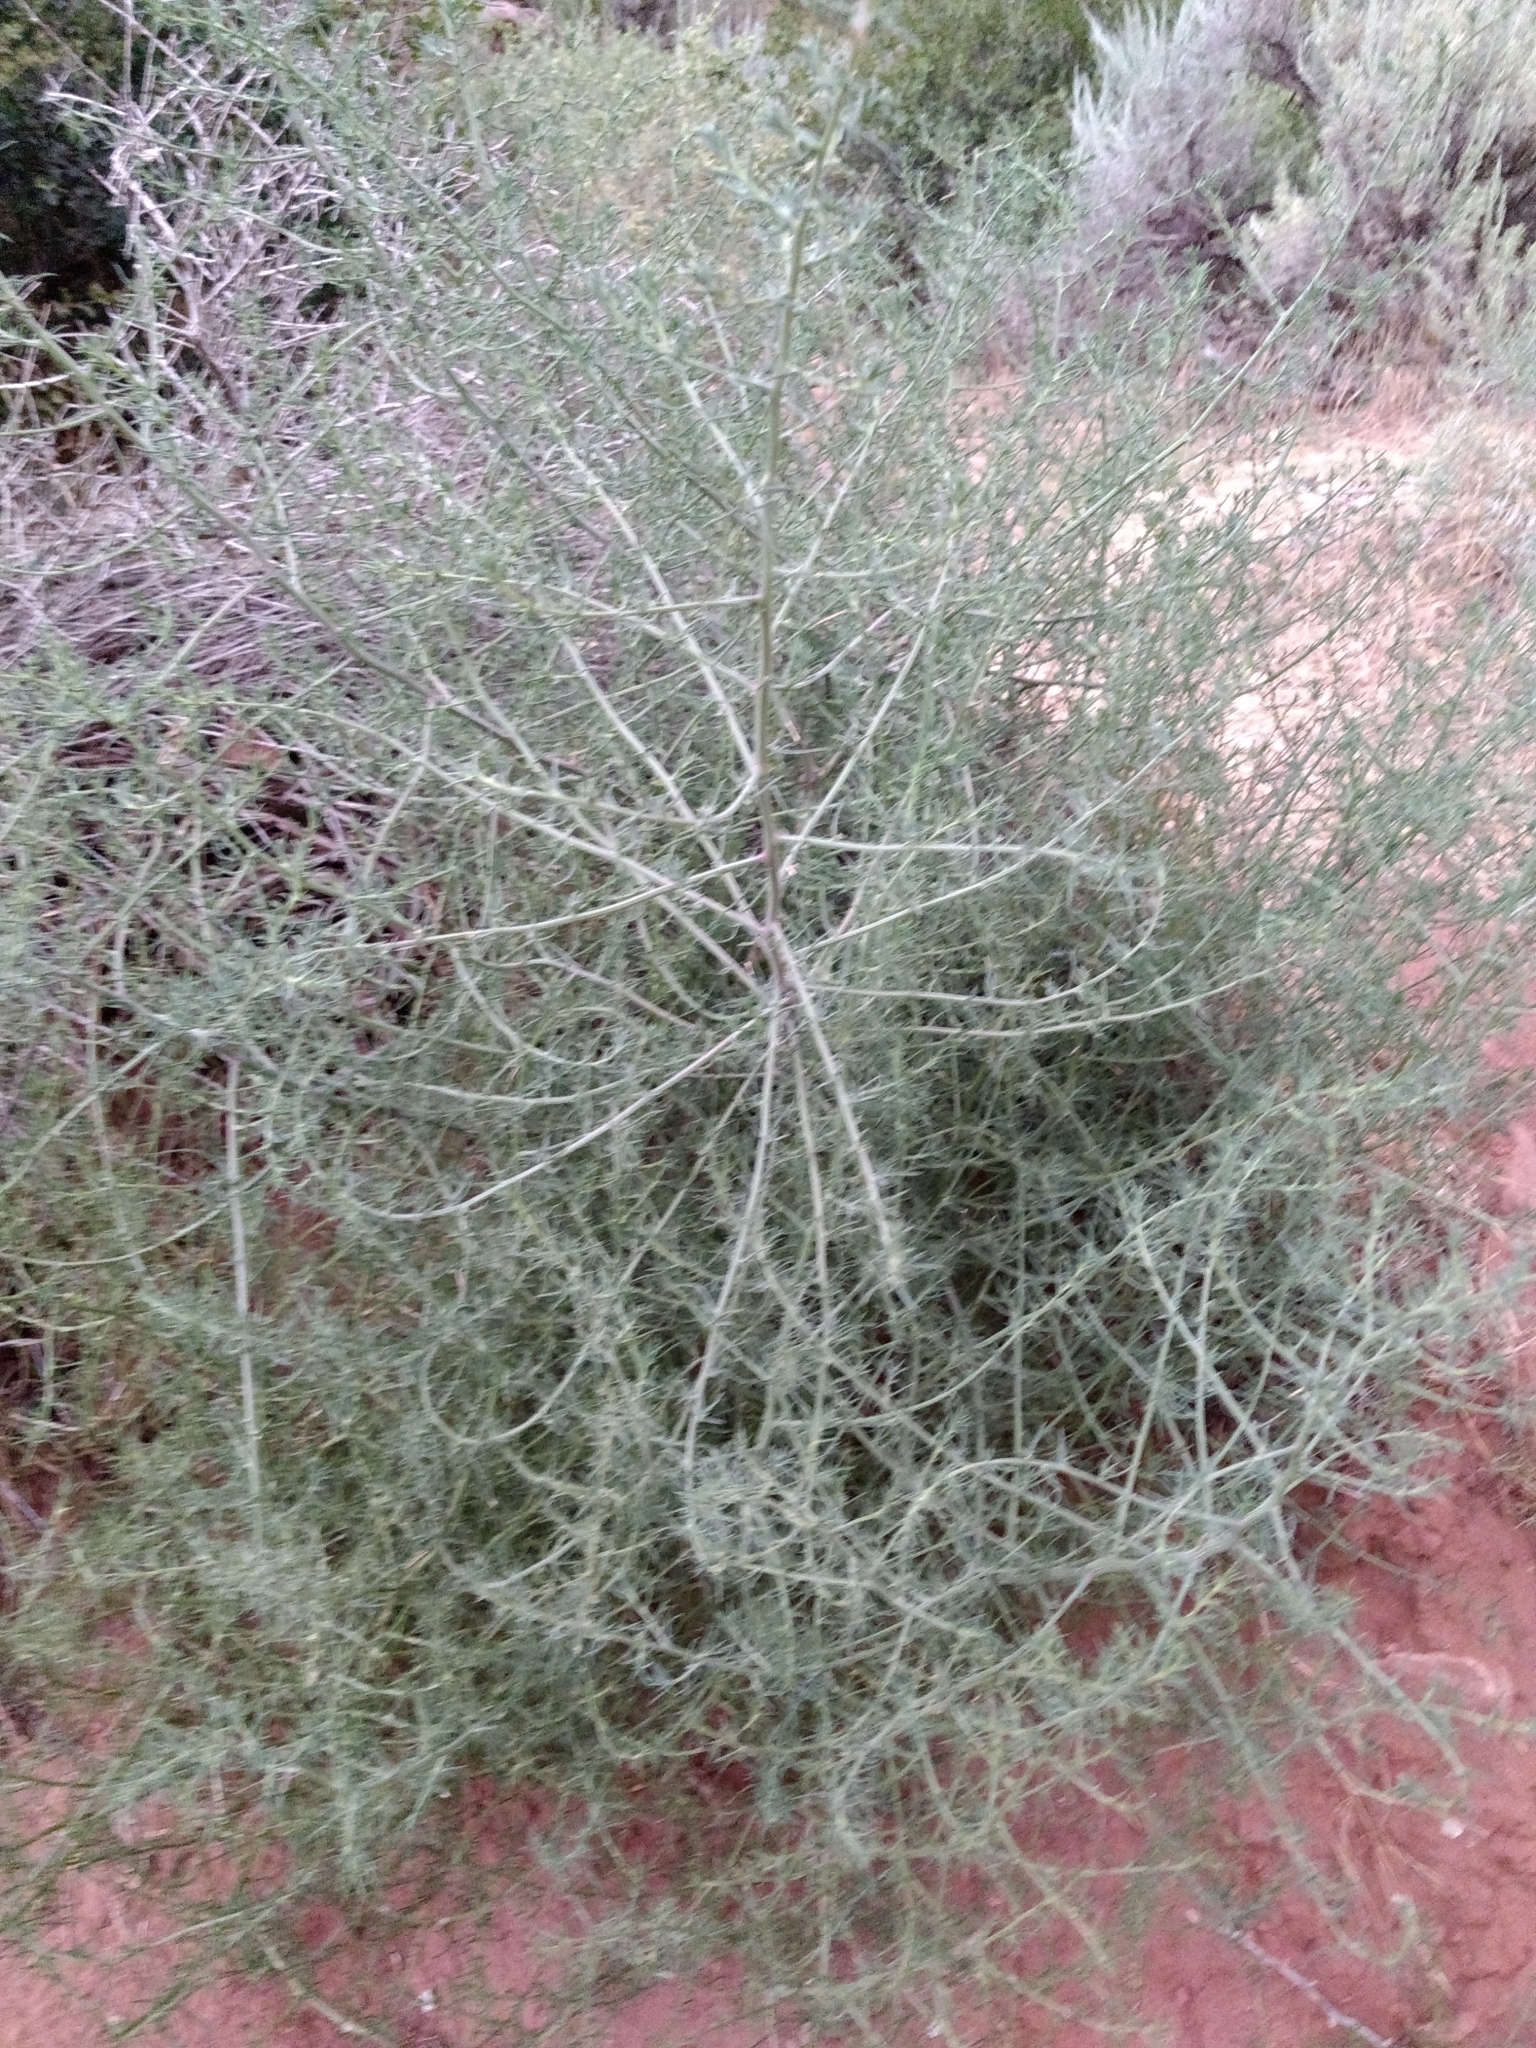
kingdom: Plantae
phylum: Tracheophyta
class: Magnoliopsida
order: Caryophyllales
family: Amaranthaceae
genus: Salsola
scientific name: Salsola tragus
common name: Prickly russian thistle
